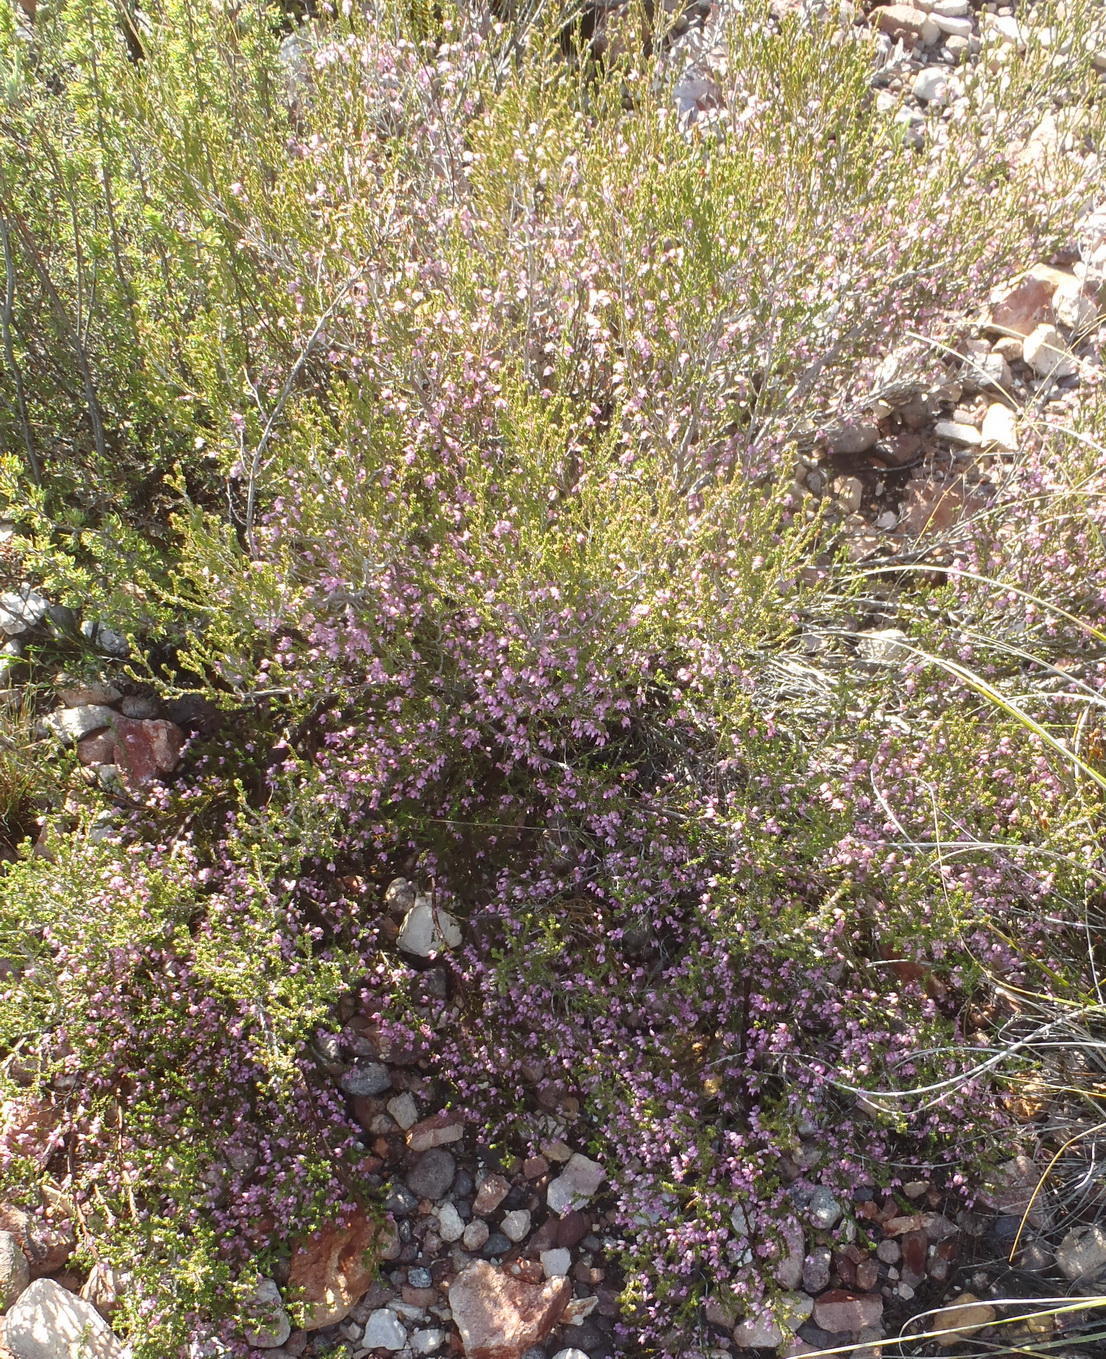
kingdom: Plantae
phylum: Tracheophyta
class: Magnoliopsida
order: Ericales
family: Ericaceae
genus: Erica
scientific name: Erica vlokii
